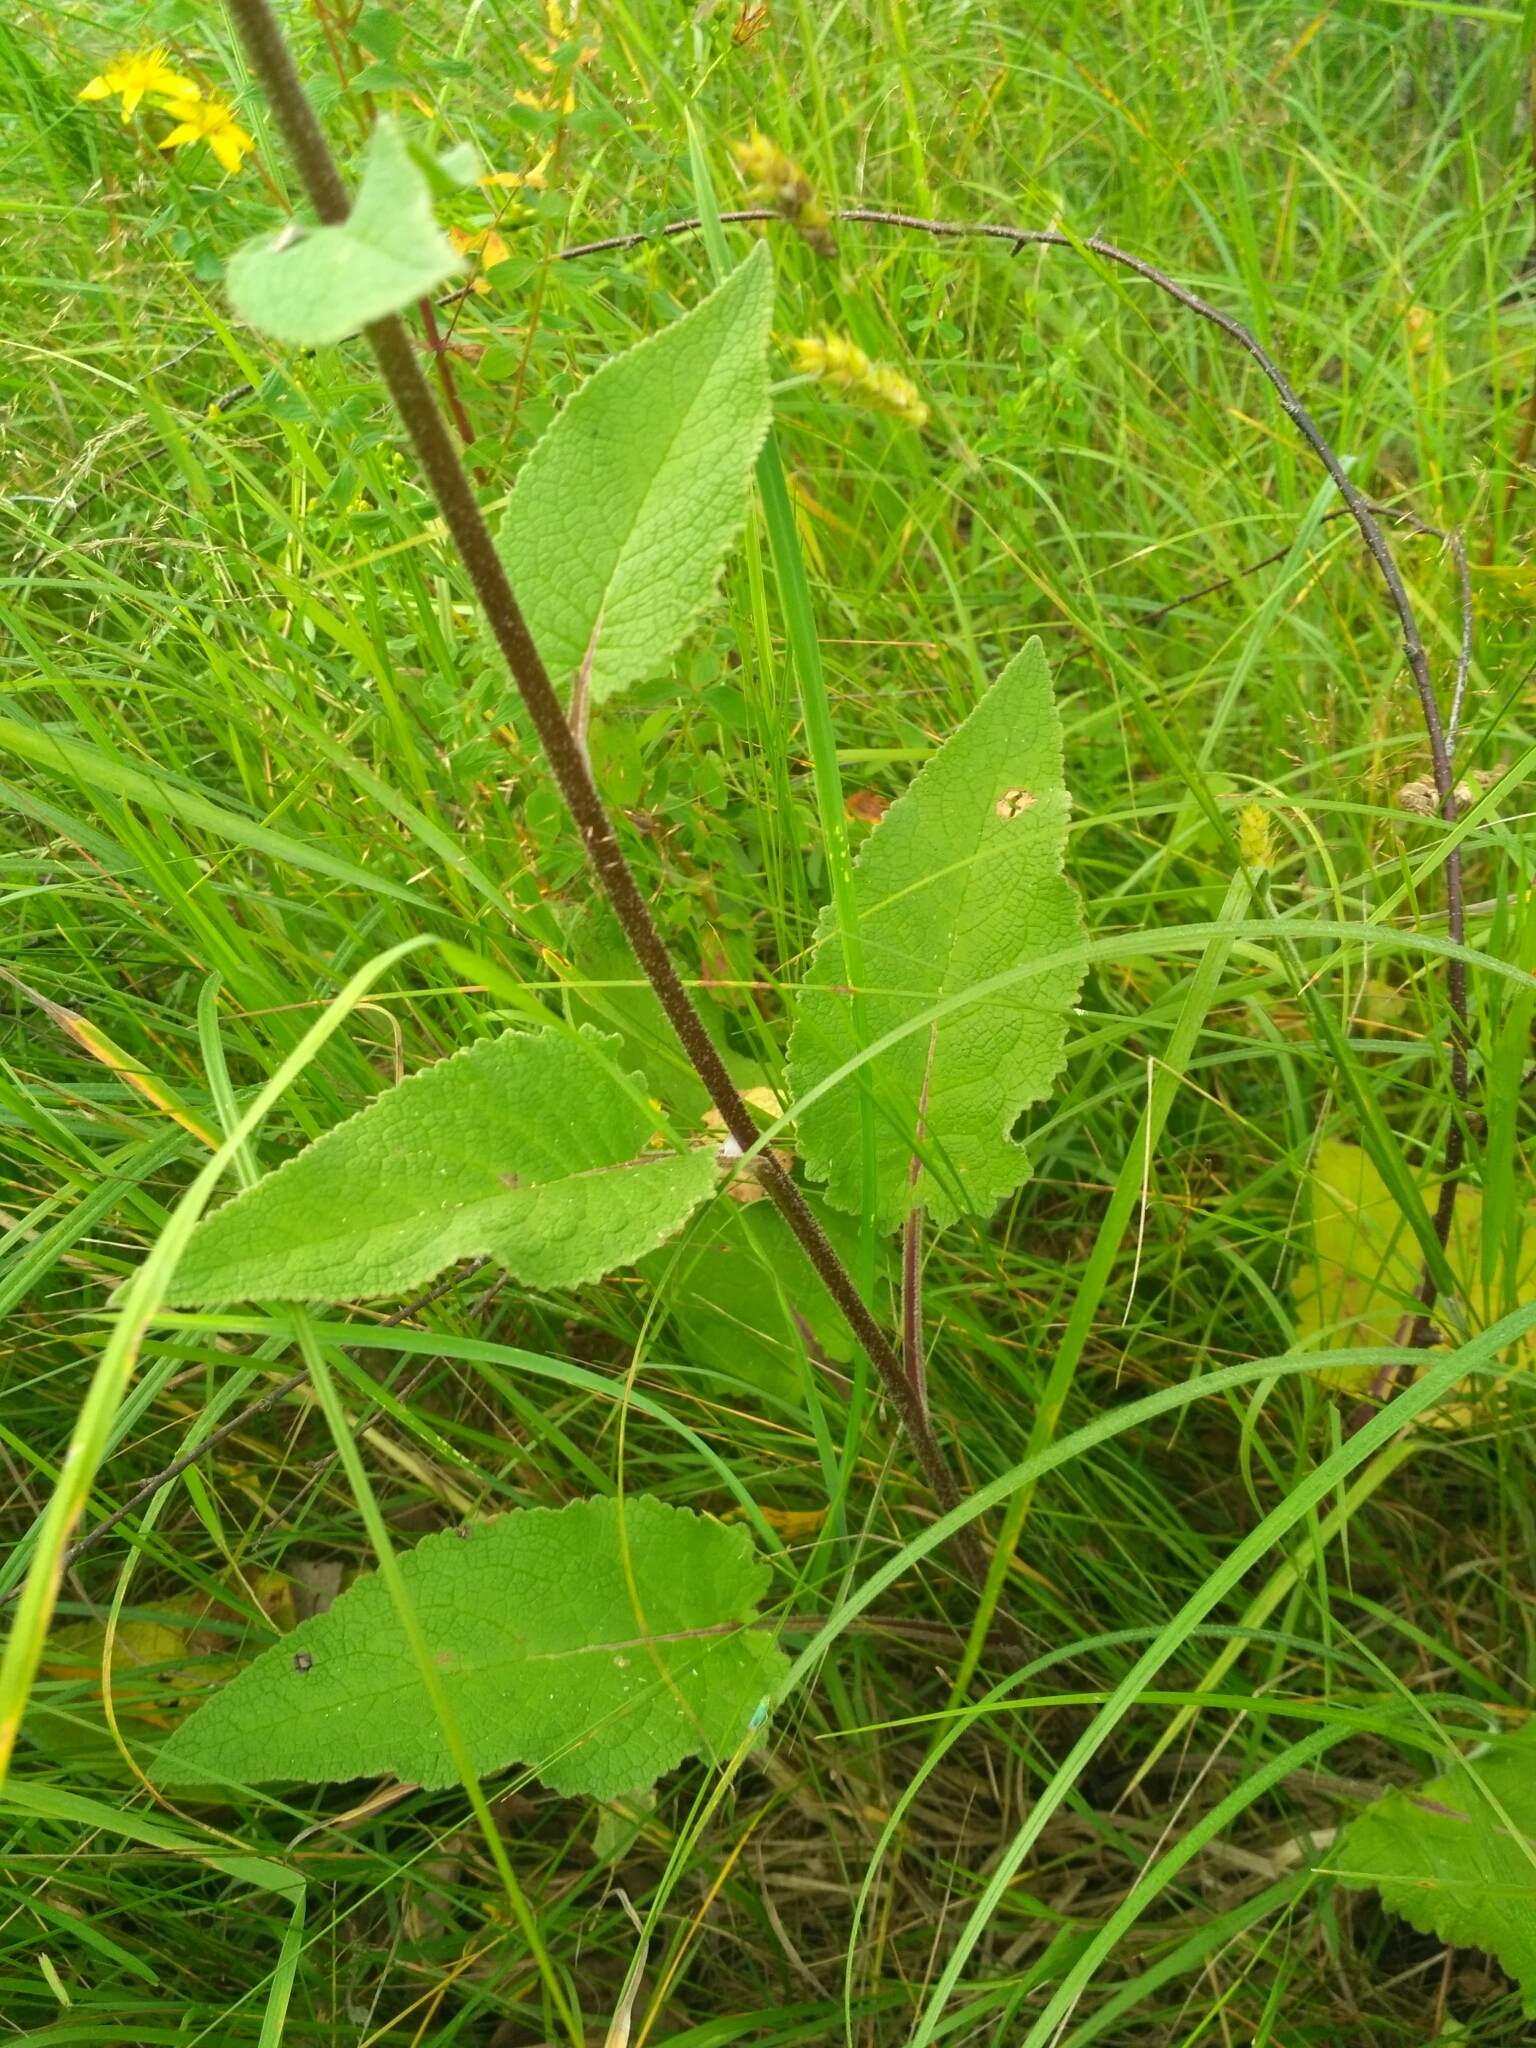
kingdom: Plantae
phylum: Tracheophyta
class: Magnoliopsida
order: Lamiales
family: Scrophulariaceae
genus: Verbascum
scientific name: Verbascum nigrum
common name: Dark mullein
